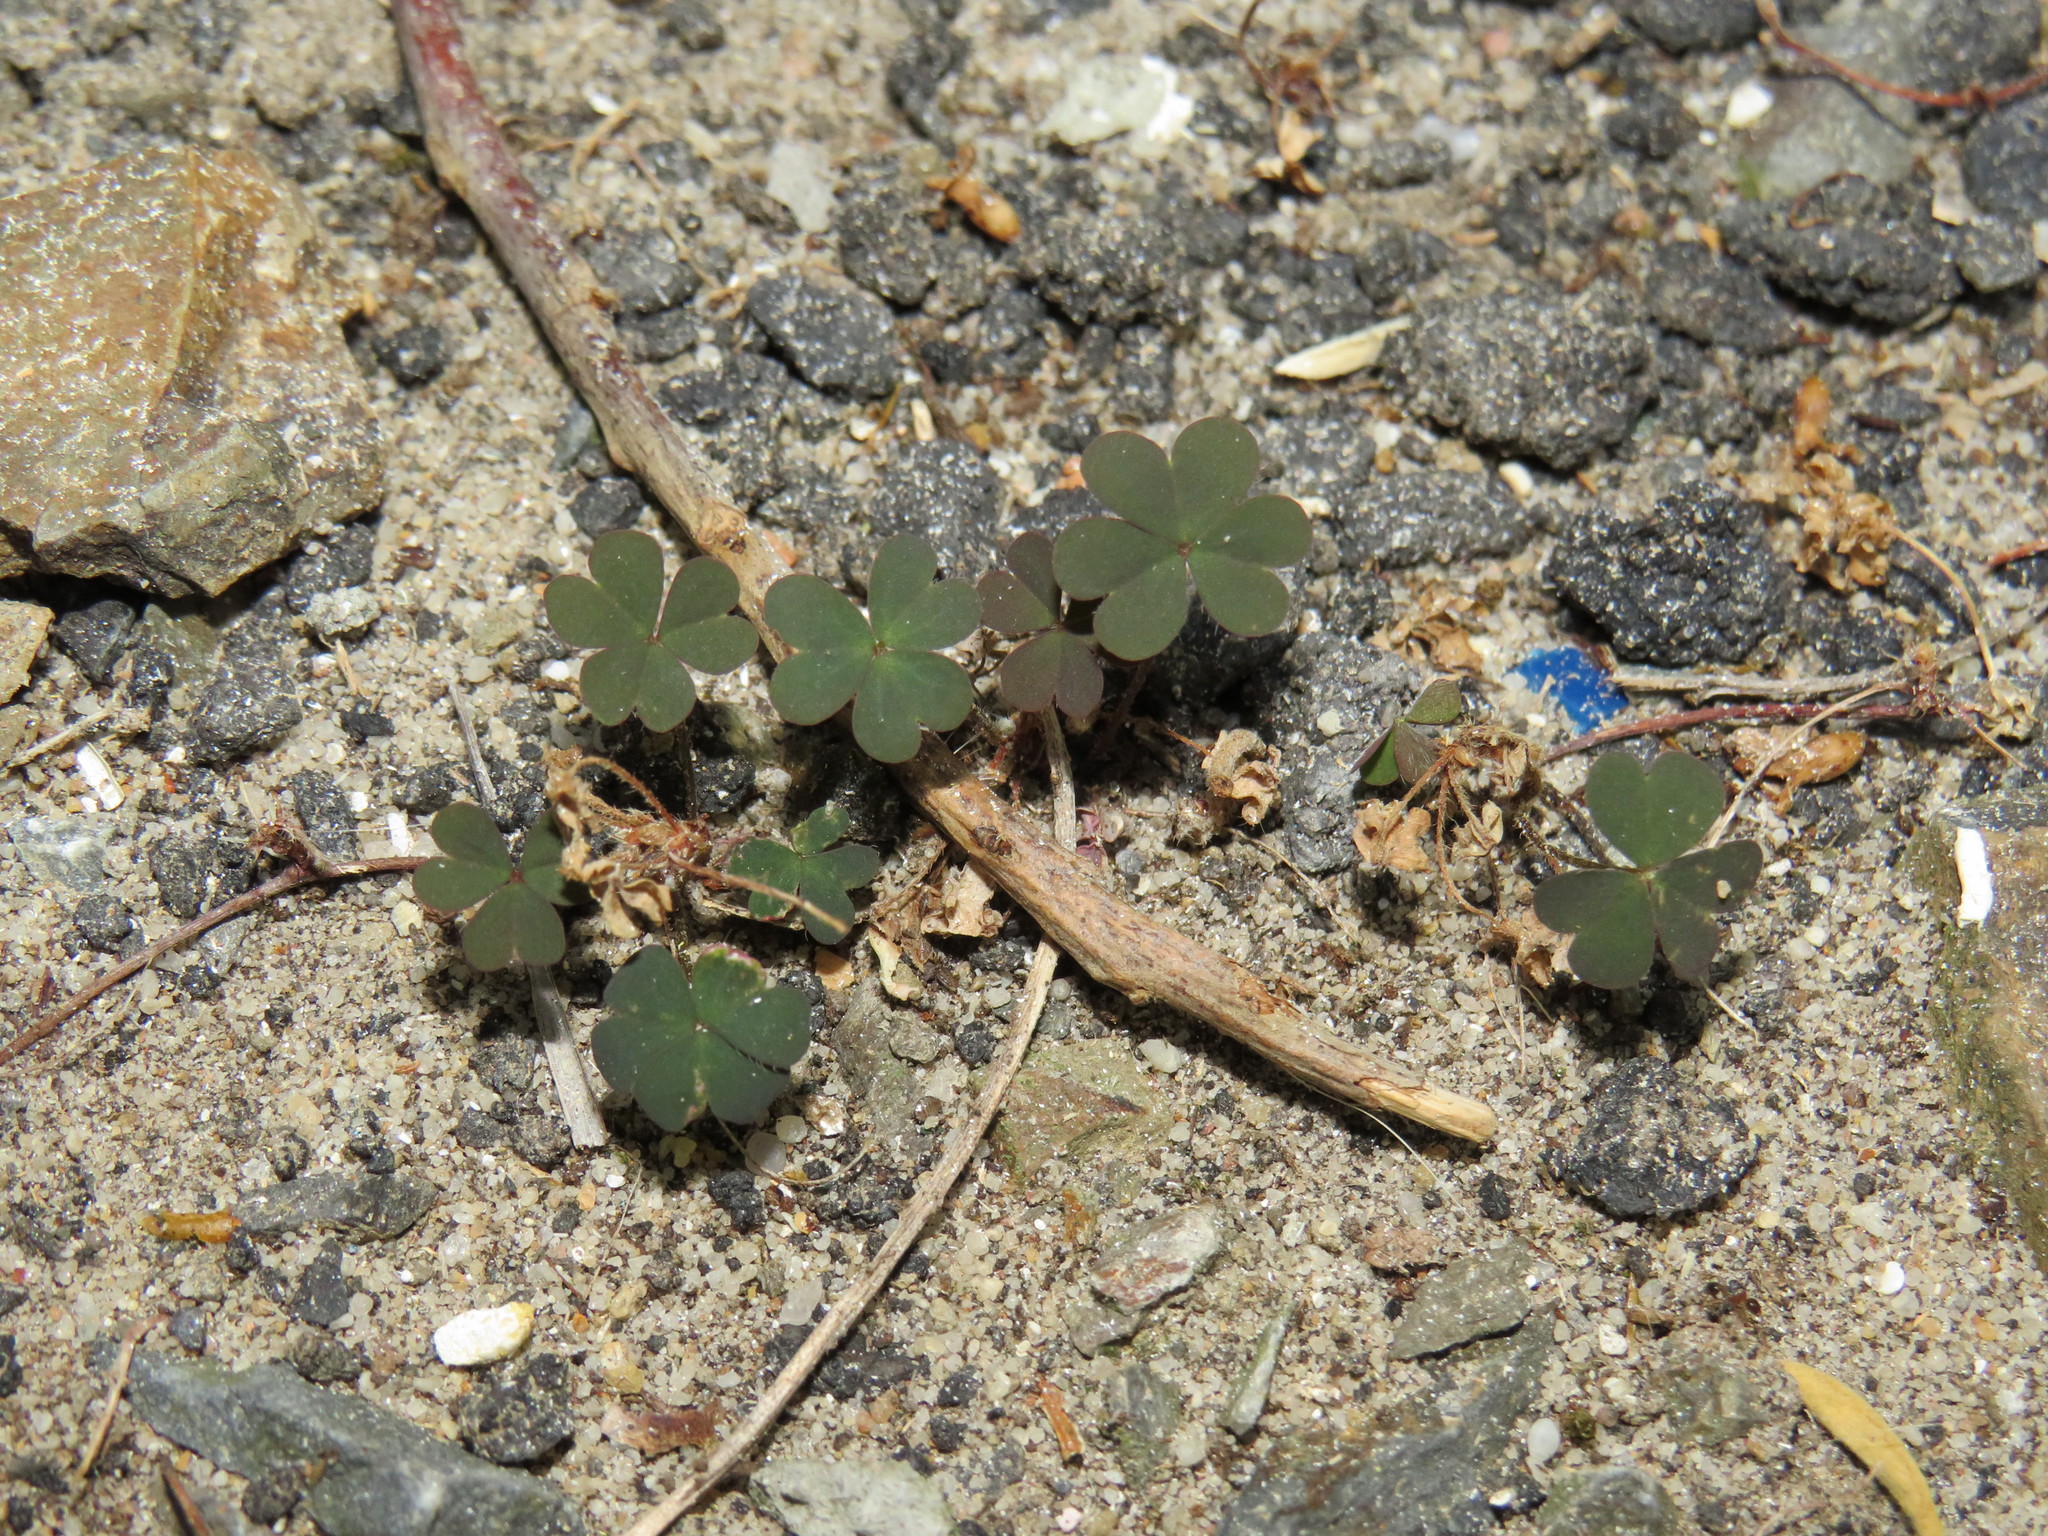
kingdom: Plantae
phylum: Tracheophyta
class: Magnoliopsida
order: Oxalidales
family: Oxalidaceae
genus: Oxalis
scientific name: Oxalis corniculata
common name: Procumbent yellow-sorrel
